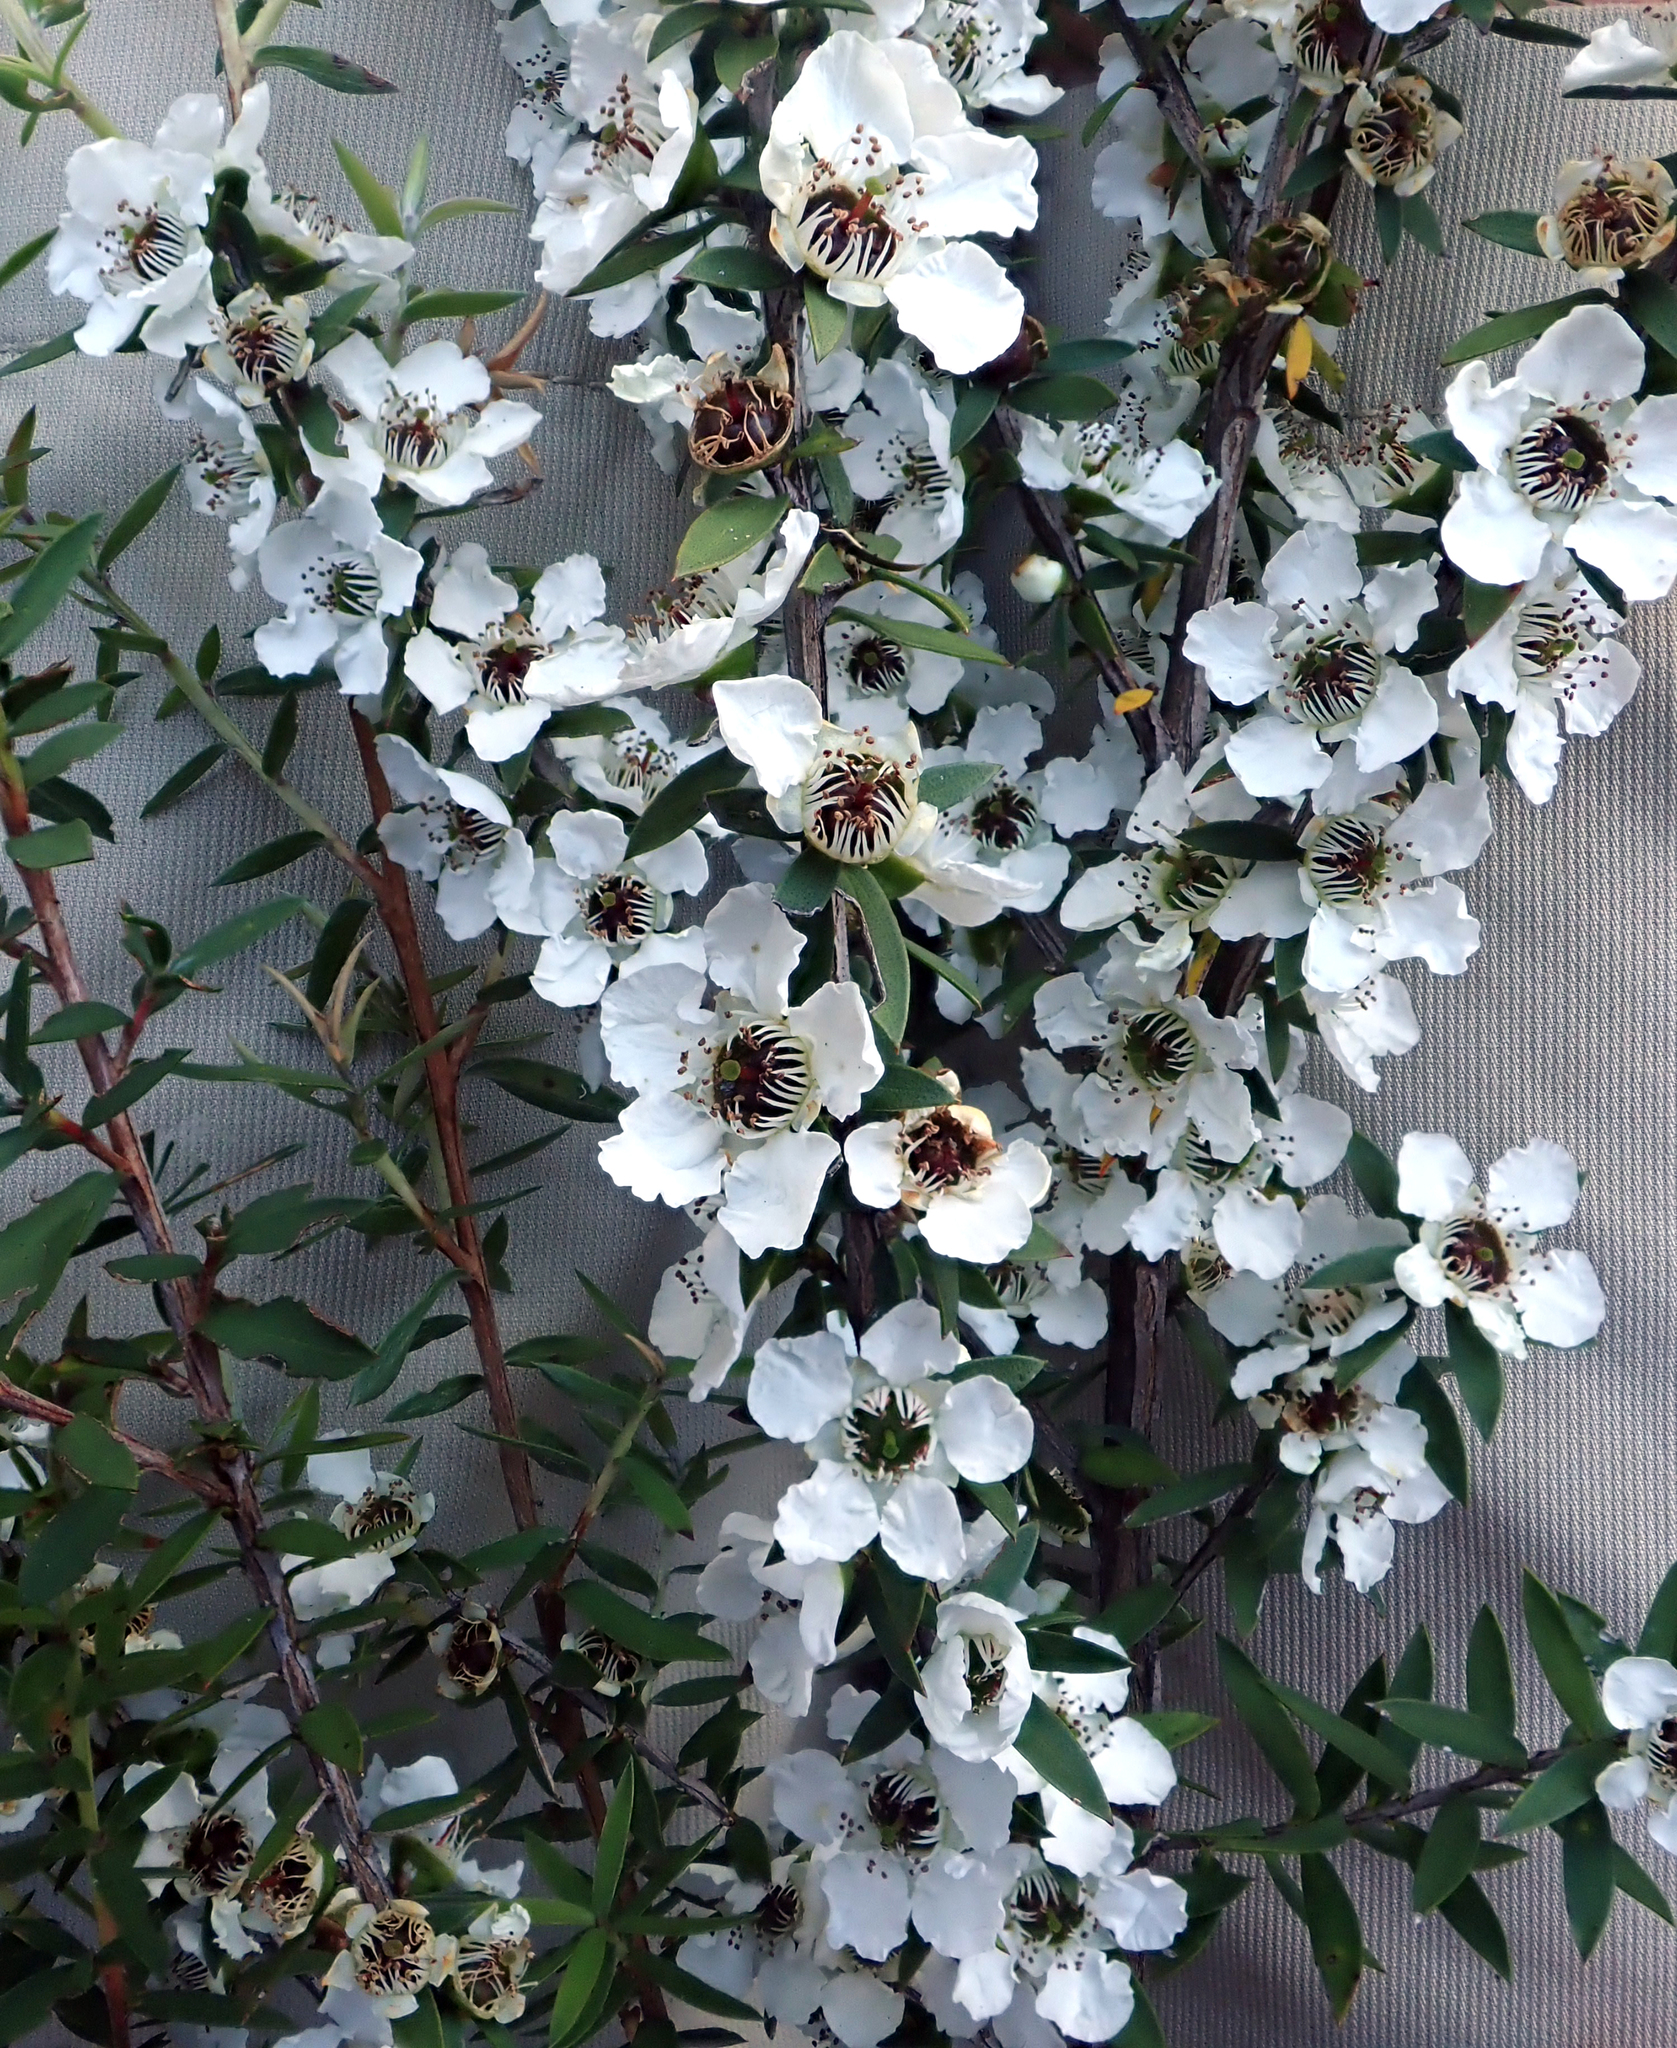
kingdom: Plantae
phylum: Tracheophyta
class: Magnoliopsida
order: Myrtales
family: Myrtaceae
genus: Leptospermum
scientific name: Leptospermum scoparium
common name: Broom tea-tree
